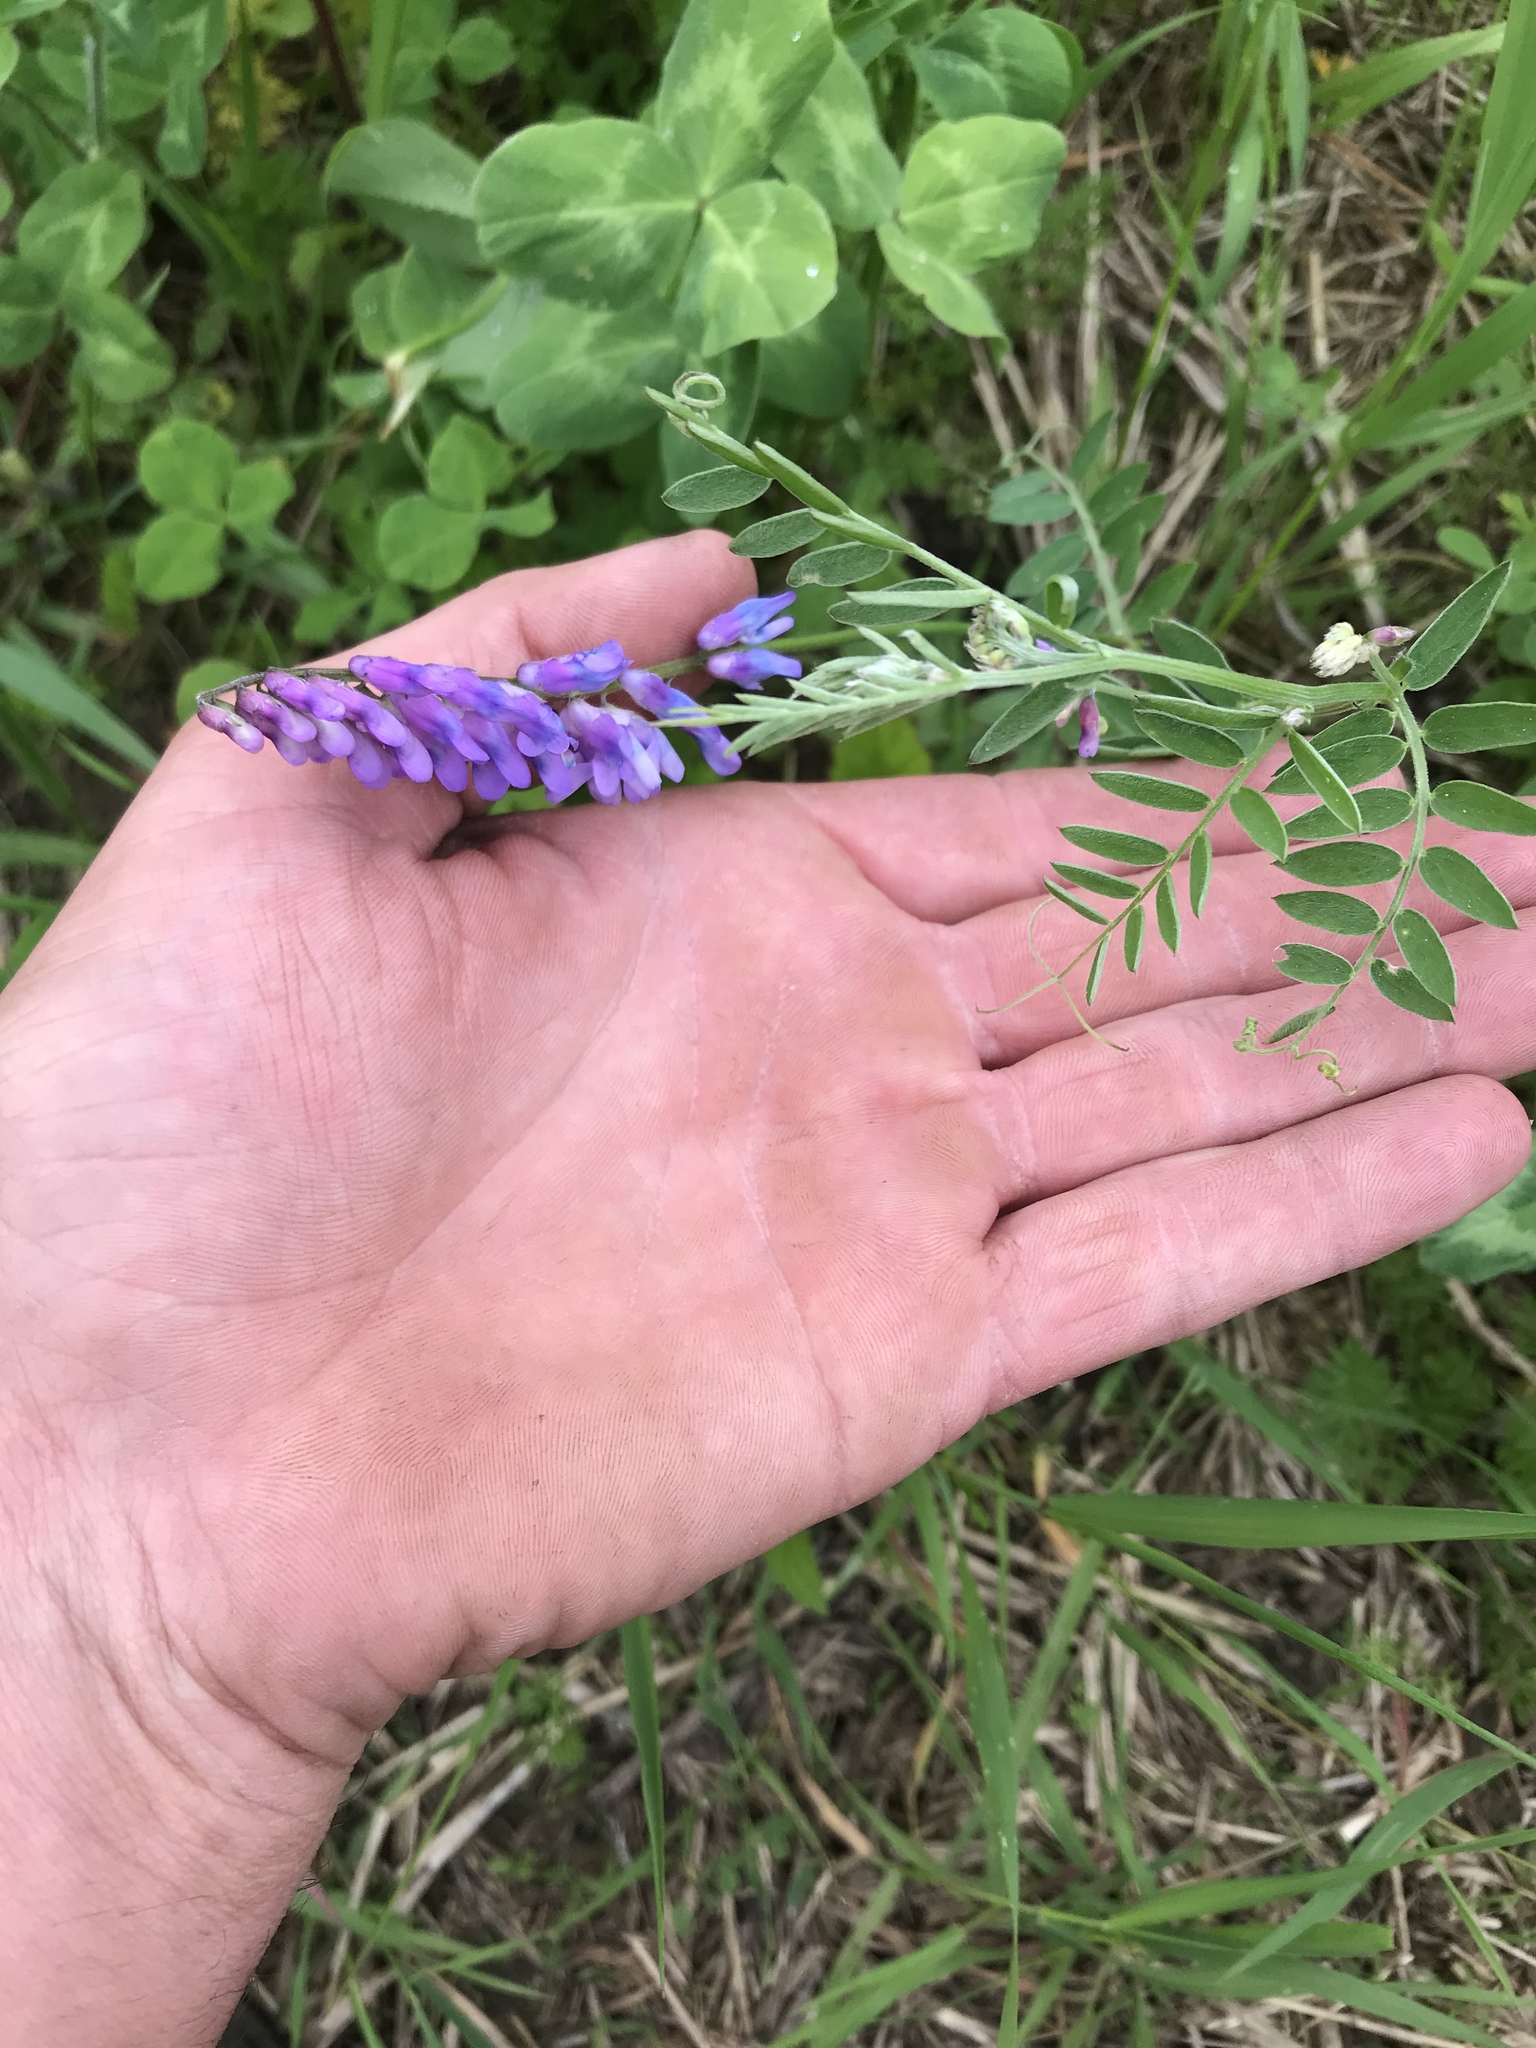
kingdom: Plantae
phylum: Tracheophyta
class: Magnoliopsida
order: Fabales
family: Fabaceae
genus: Vicia
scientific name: Vicia cracca
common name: Bird vetch
